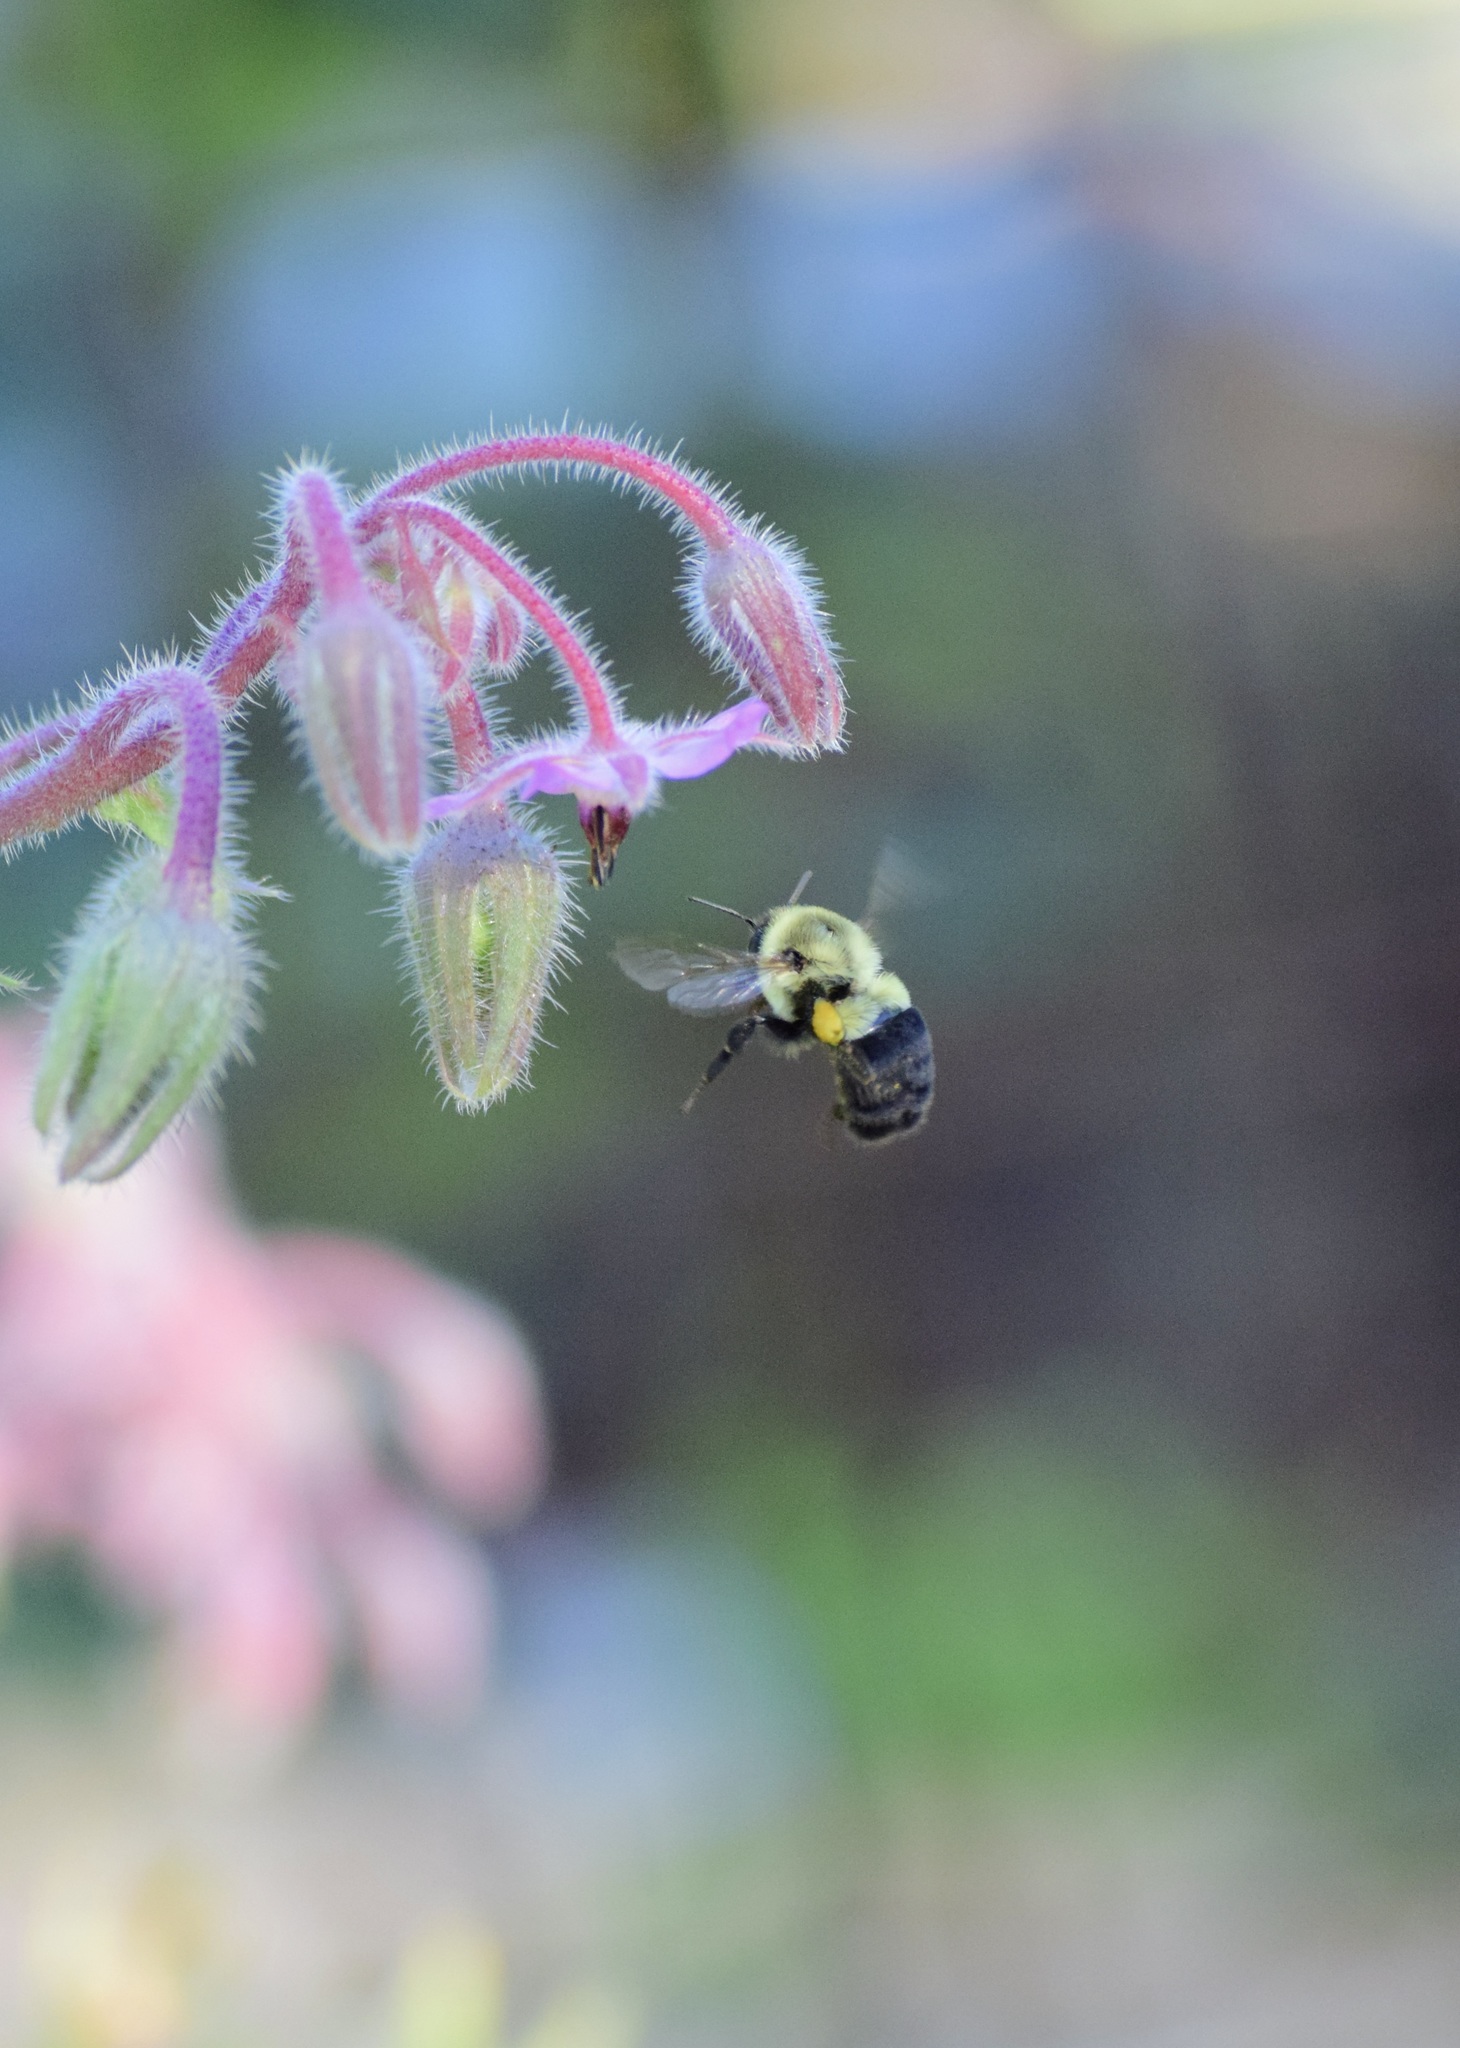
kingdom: Animalia
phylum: Arthropoda
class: Insecta
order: Hymenoptera
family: Apidae
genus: Bombus
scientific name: Bombus impatiens
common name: Common eastern bumble bee
